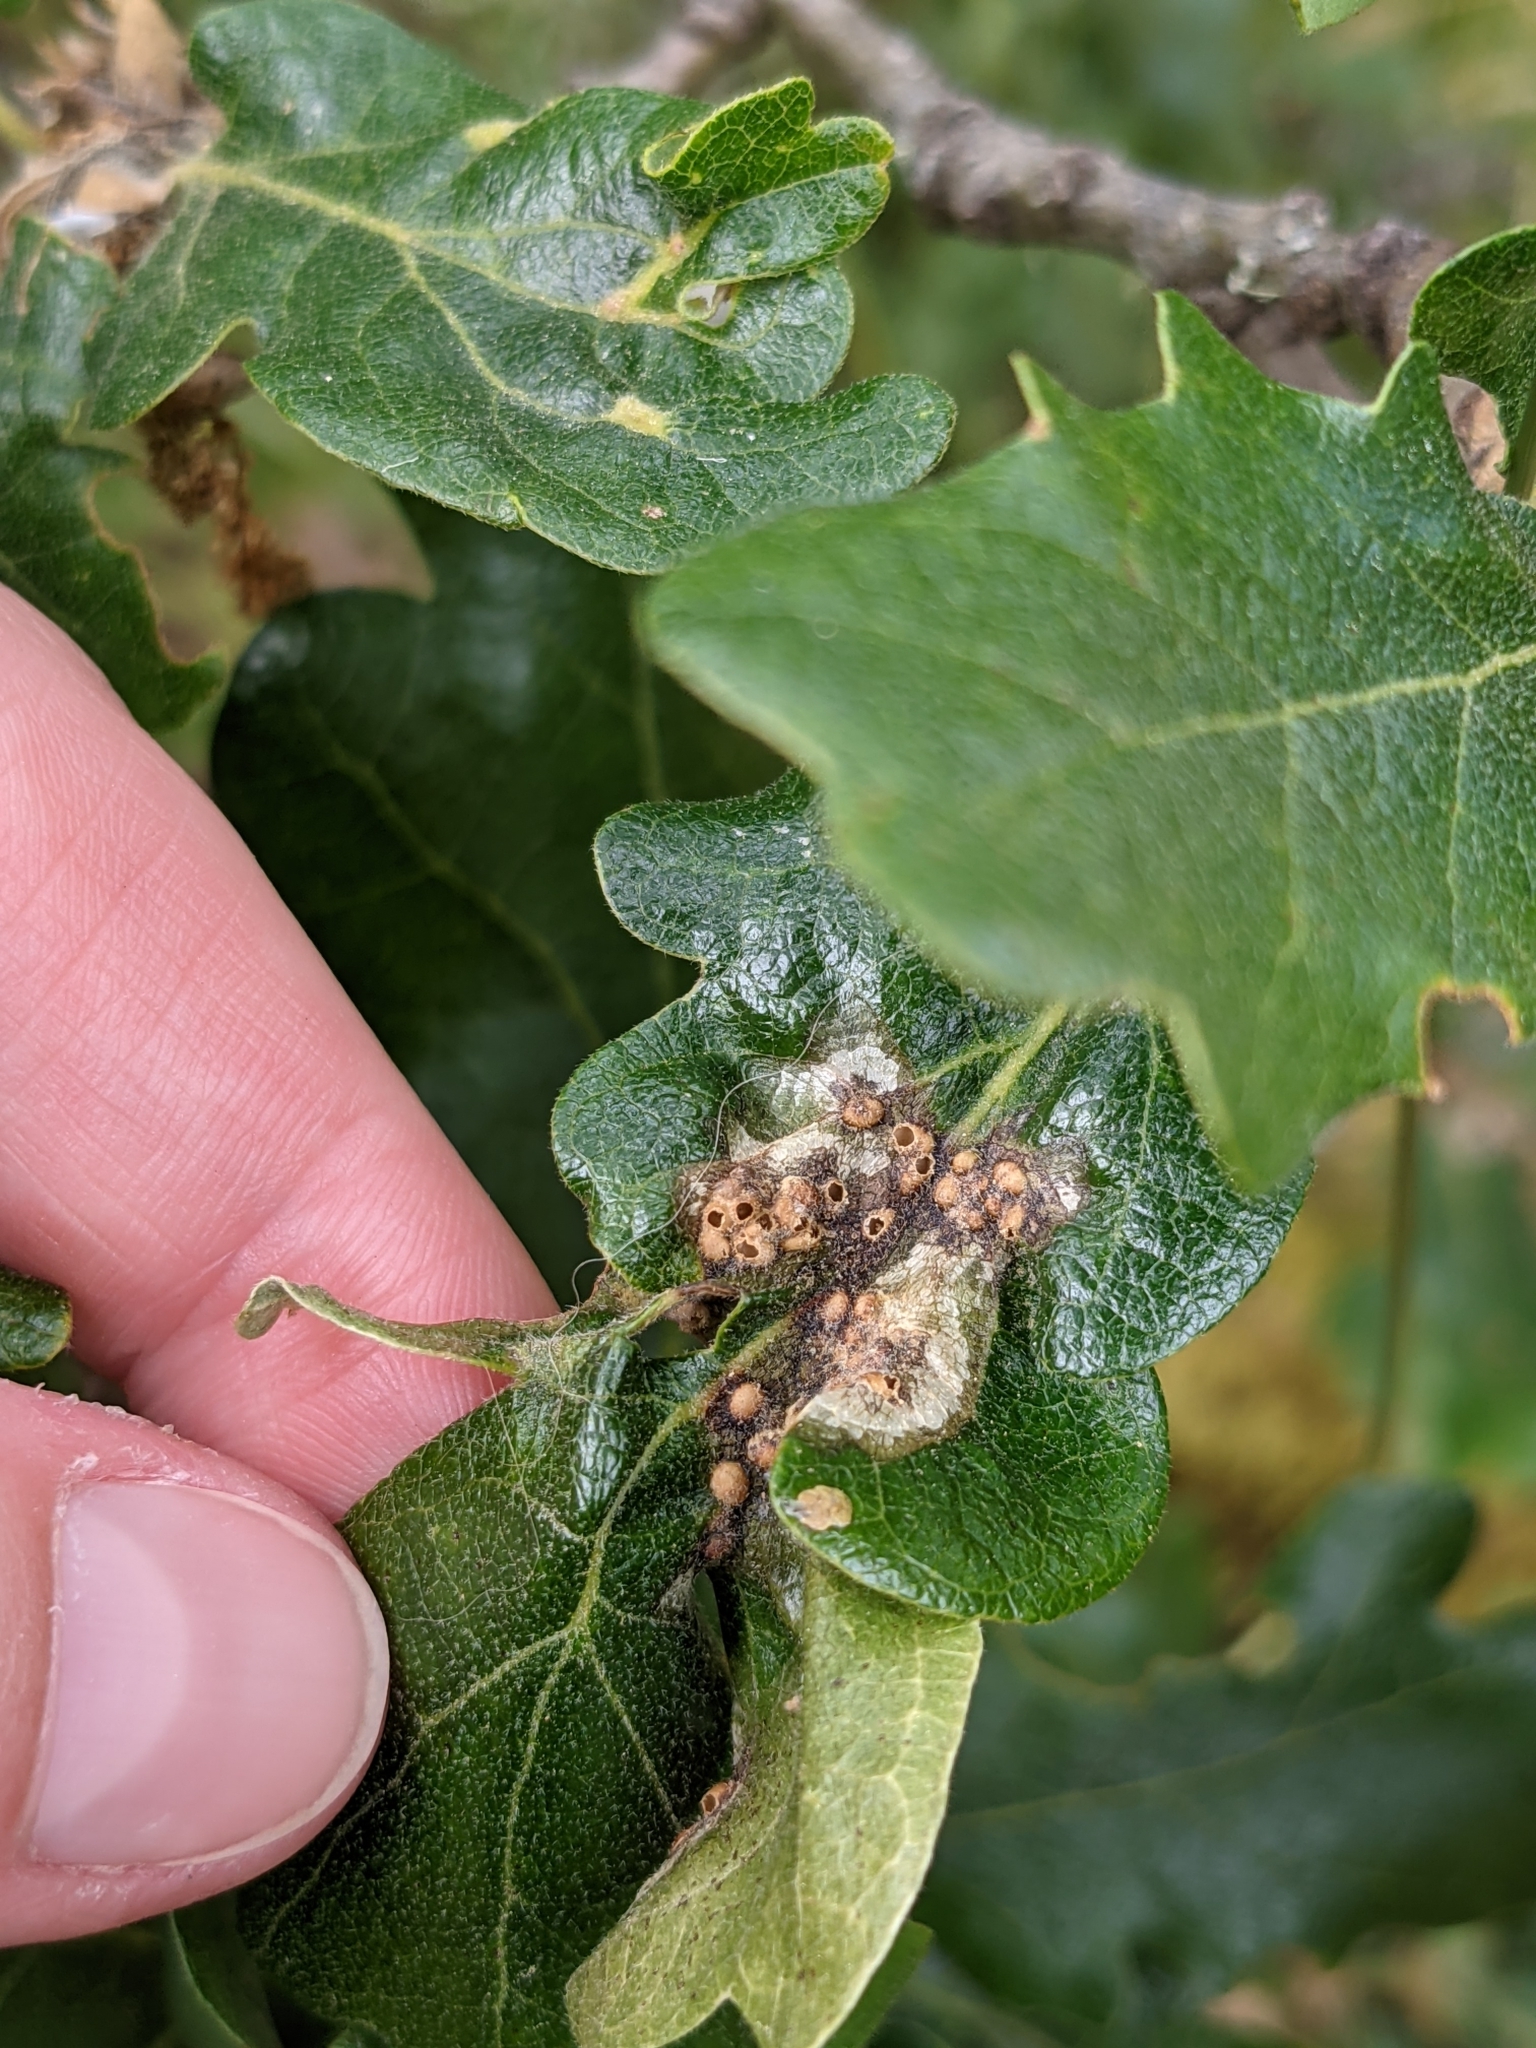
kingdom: Animalia
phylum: Arthropoda
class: Insecta
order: Hymenoptera
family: Cynipidae
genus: Neuroterus
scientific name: Neuroterus saltarius
